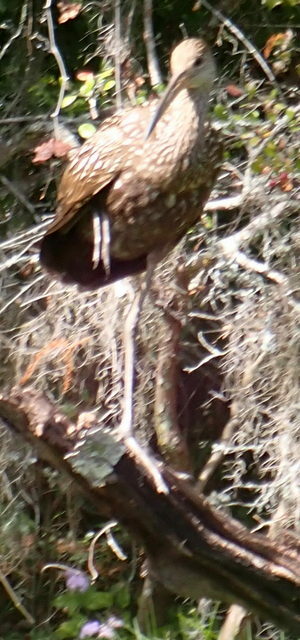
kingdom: Animalia
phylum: Chordata
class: Aves
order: Gruiformes
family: Aramidae
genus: Aramus
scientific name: Aramus guarauna
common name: Limpkin
